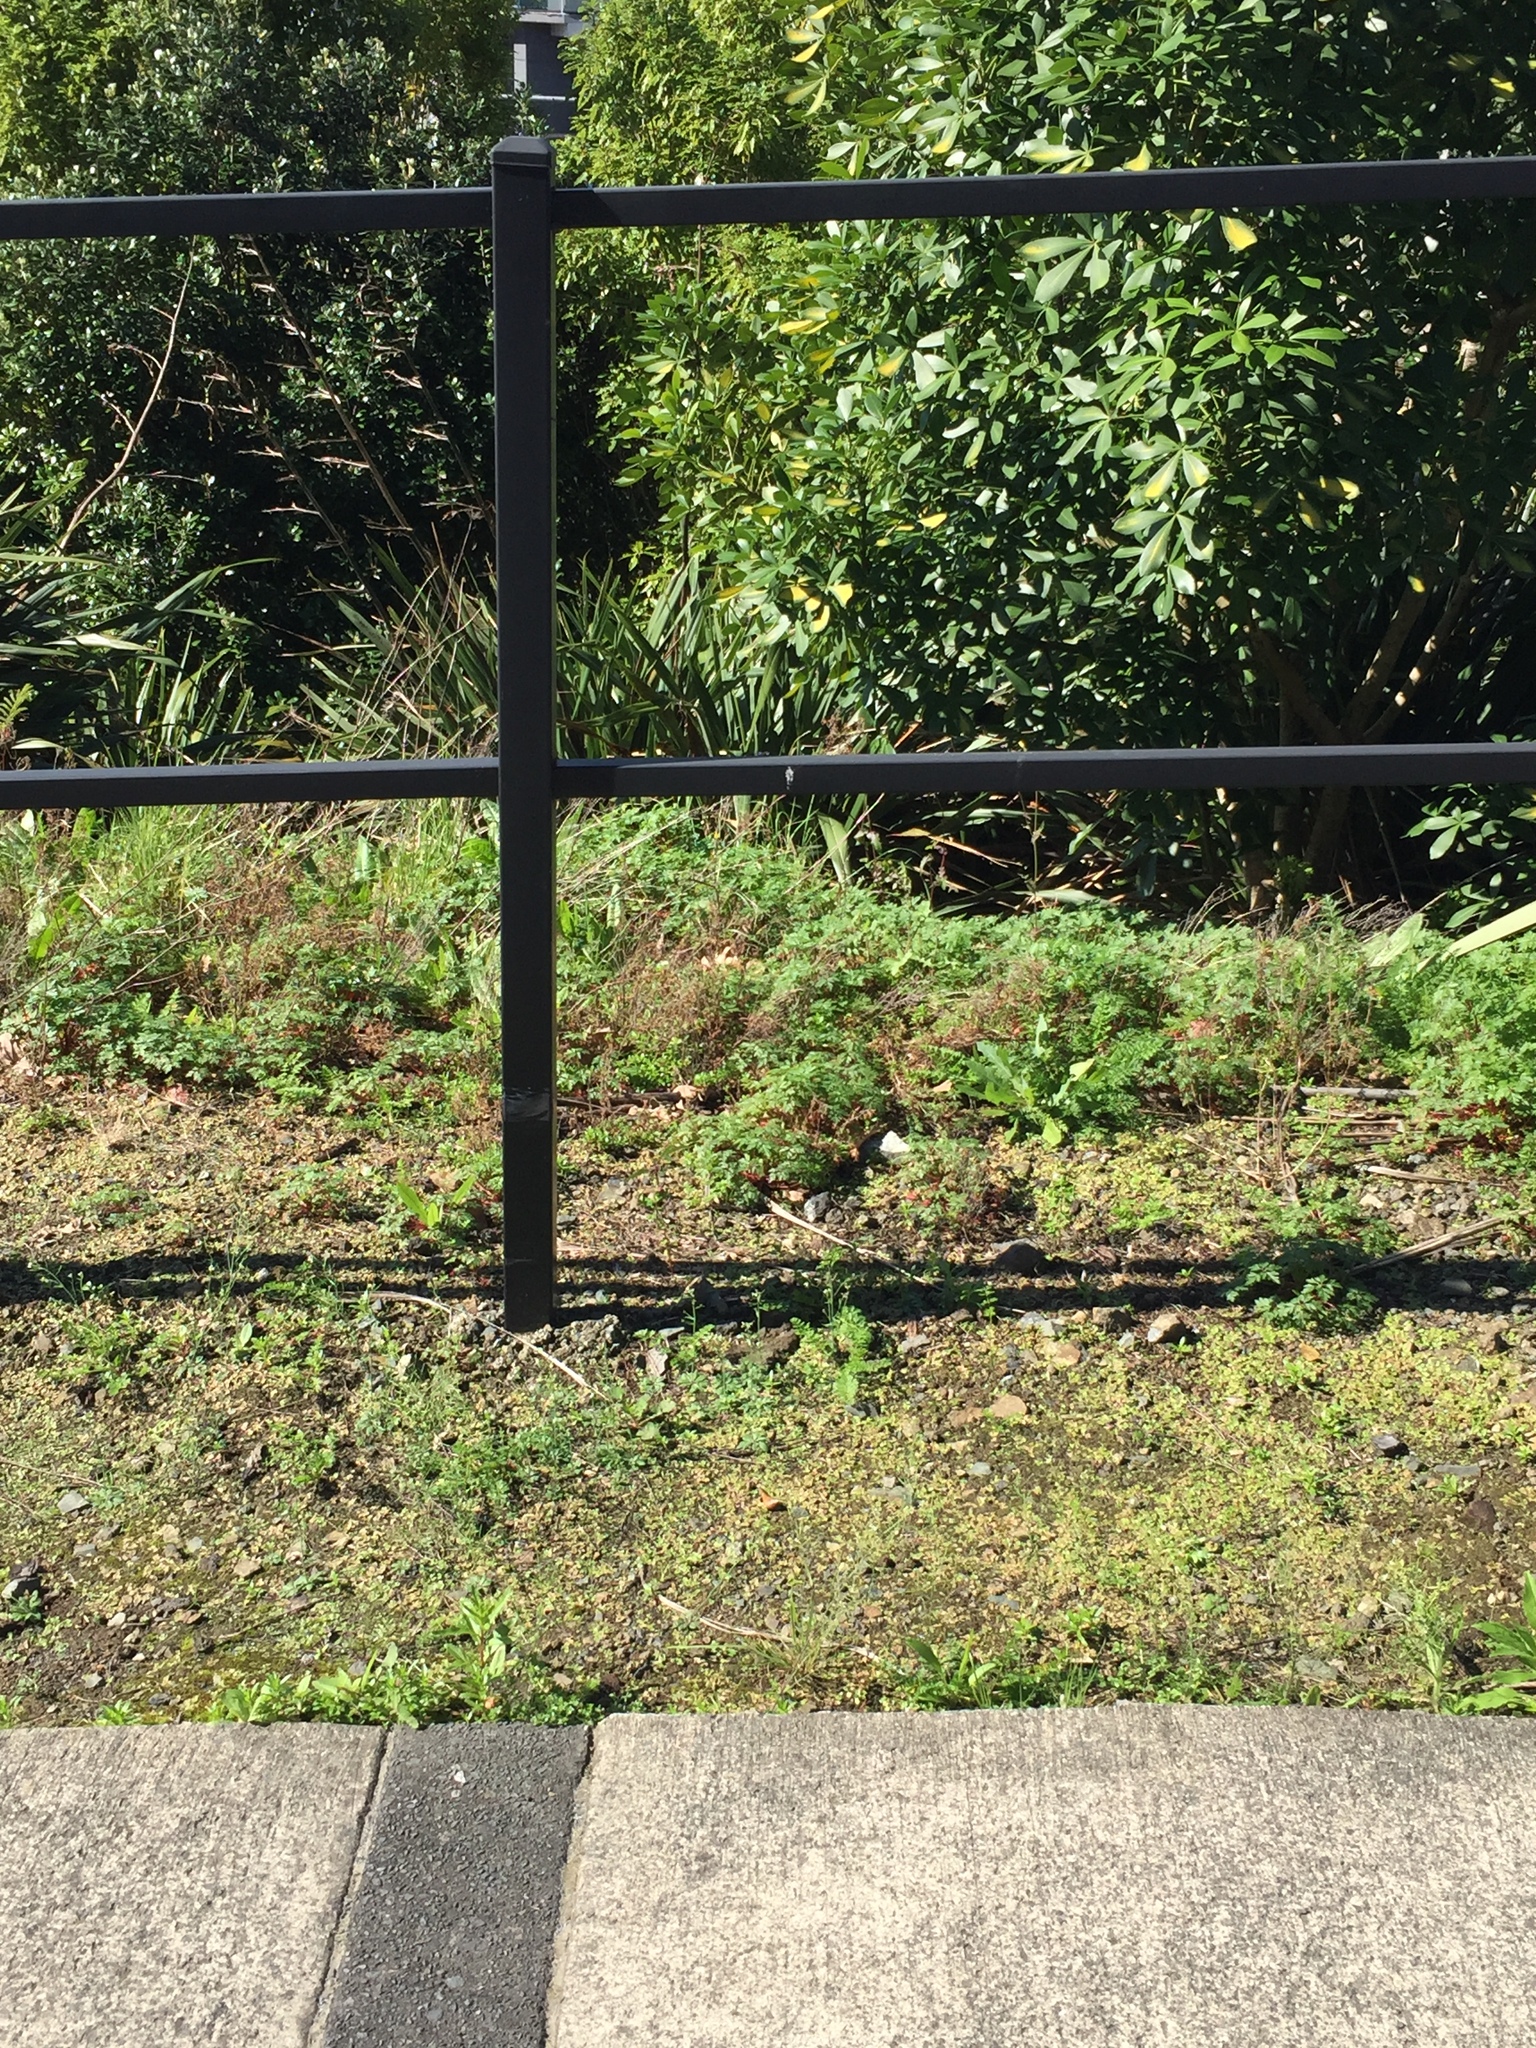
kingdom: Plantae
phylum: Tracheophyta
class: Magnoliopsida
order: Brassicales
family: Brassicaceae
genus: Arabidopsis
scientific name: Arabidopsis thaliana
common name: Thale cress
